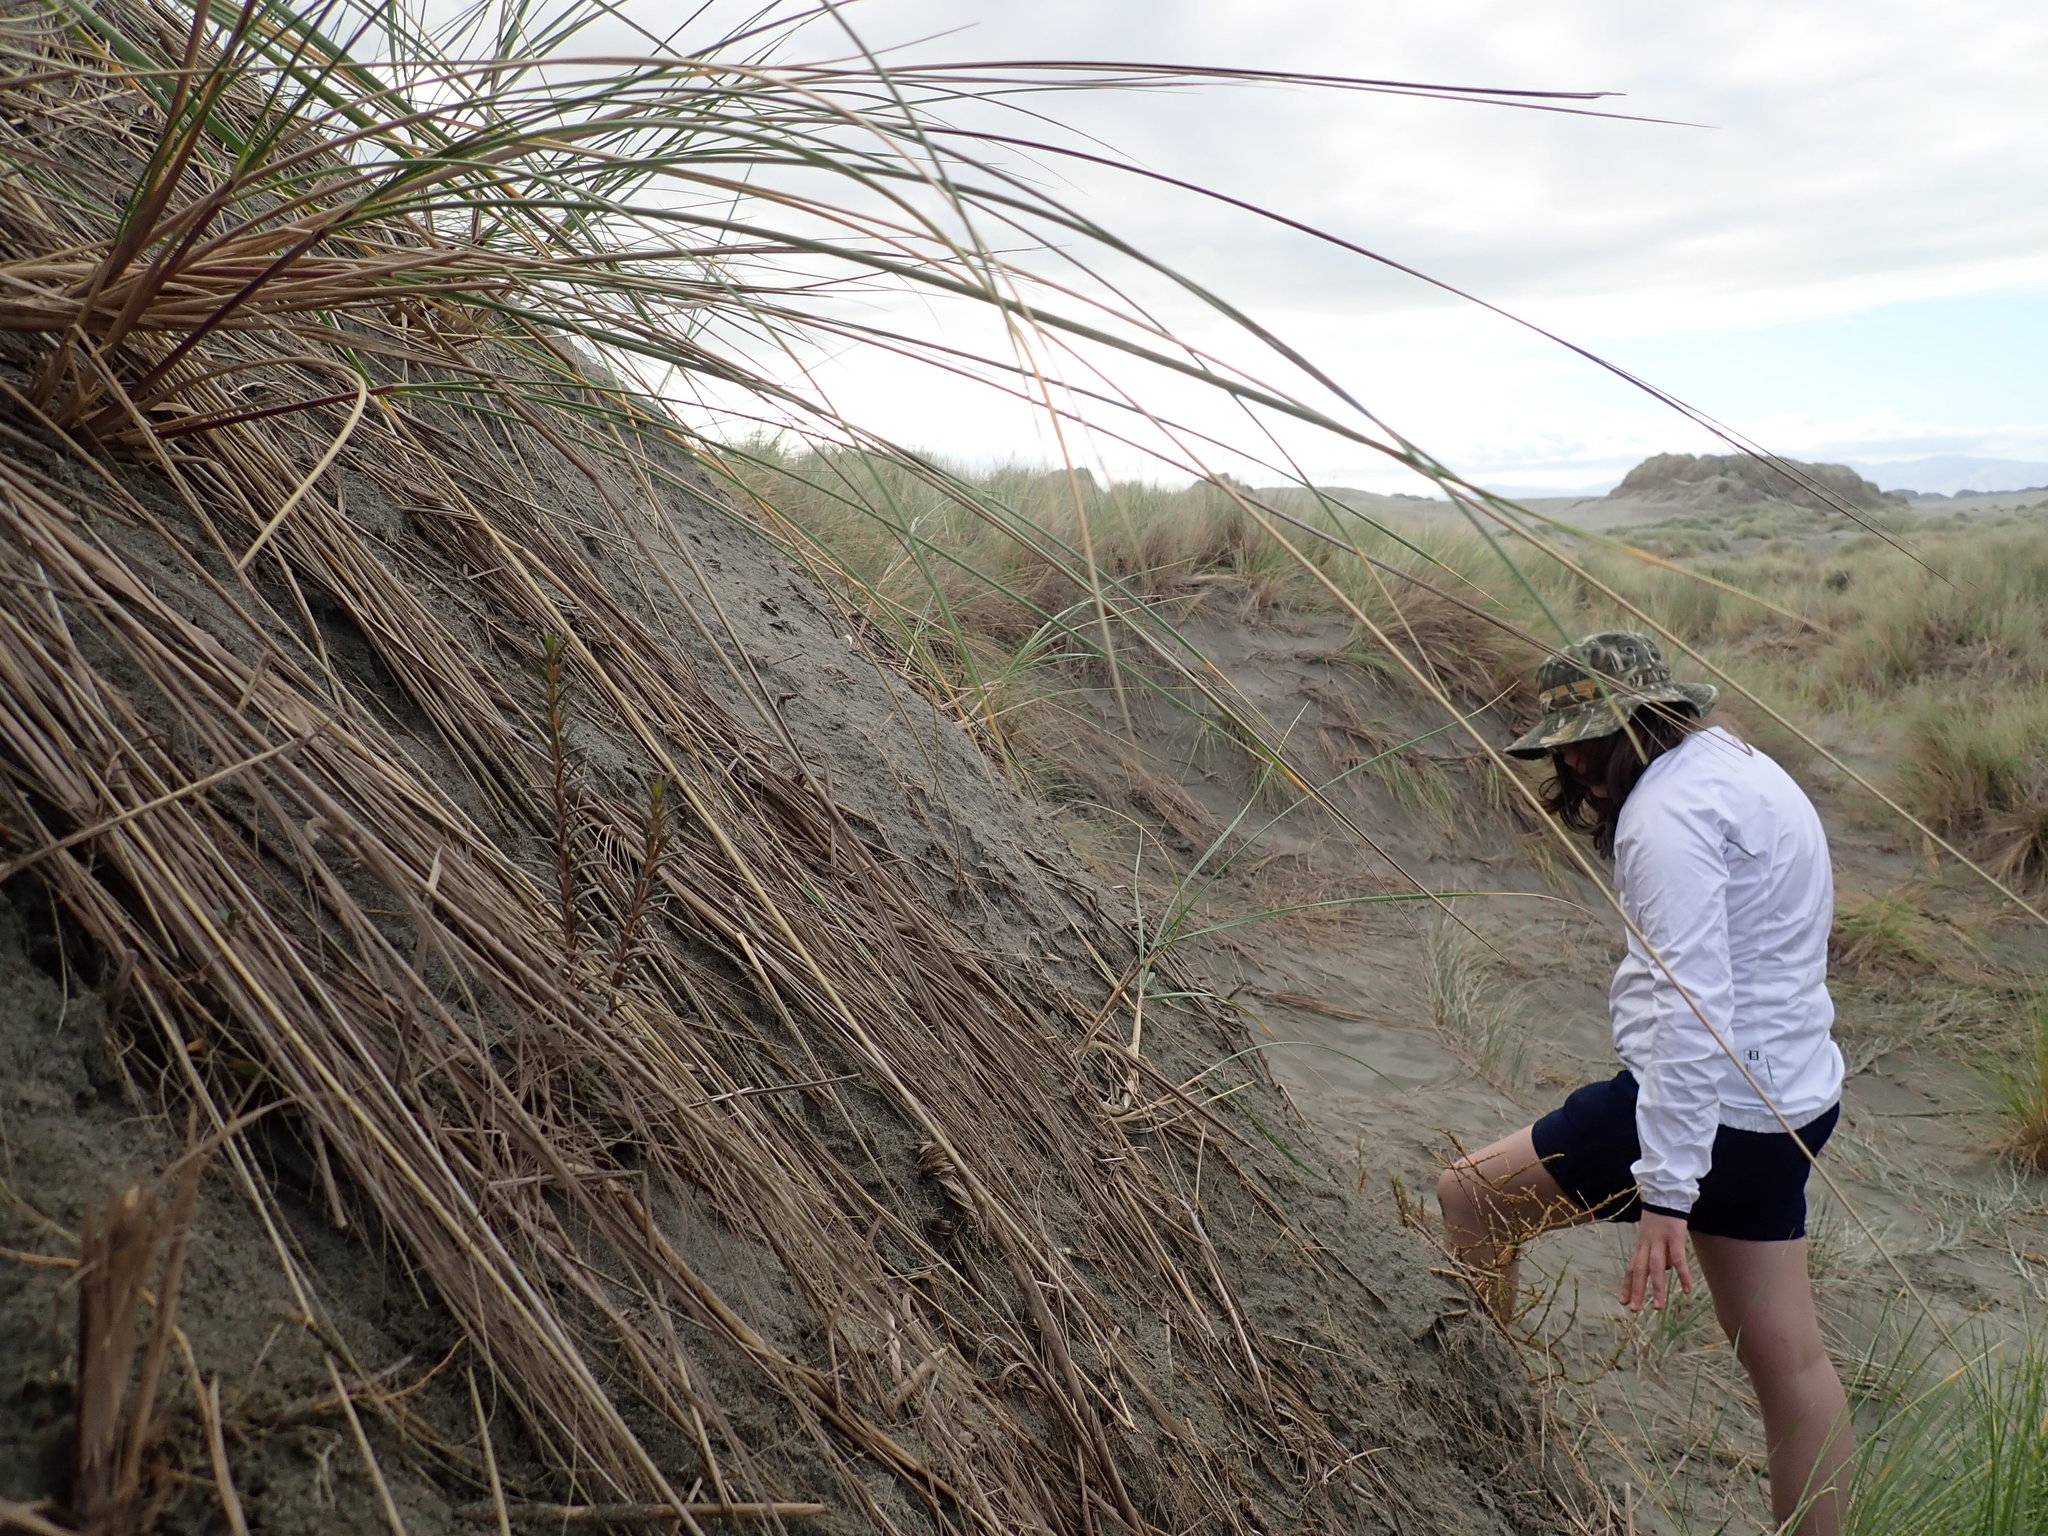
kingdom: Plantae
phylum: Tracheophyta
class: Magnoliopsida
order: Gentianales
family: Rubiaceae
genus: Coprosma
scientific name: Coprosma acerosa
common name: Sand coprosma
